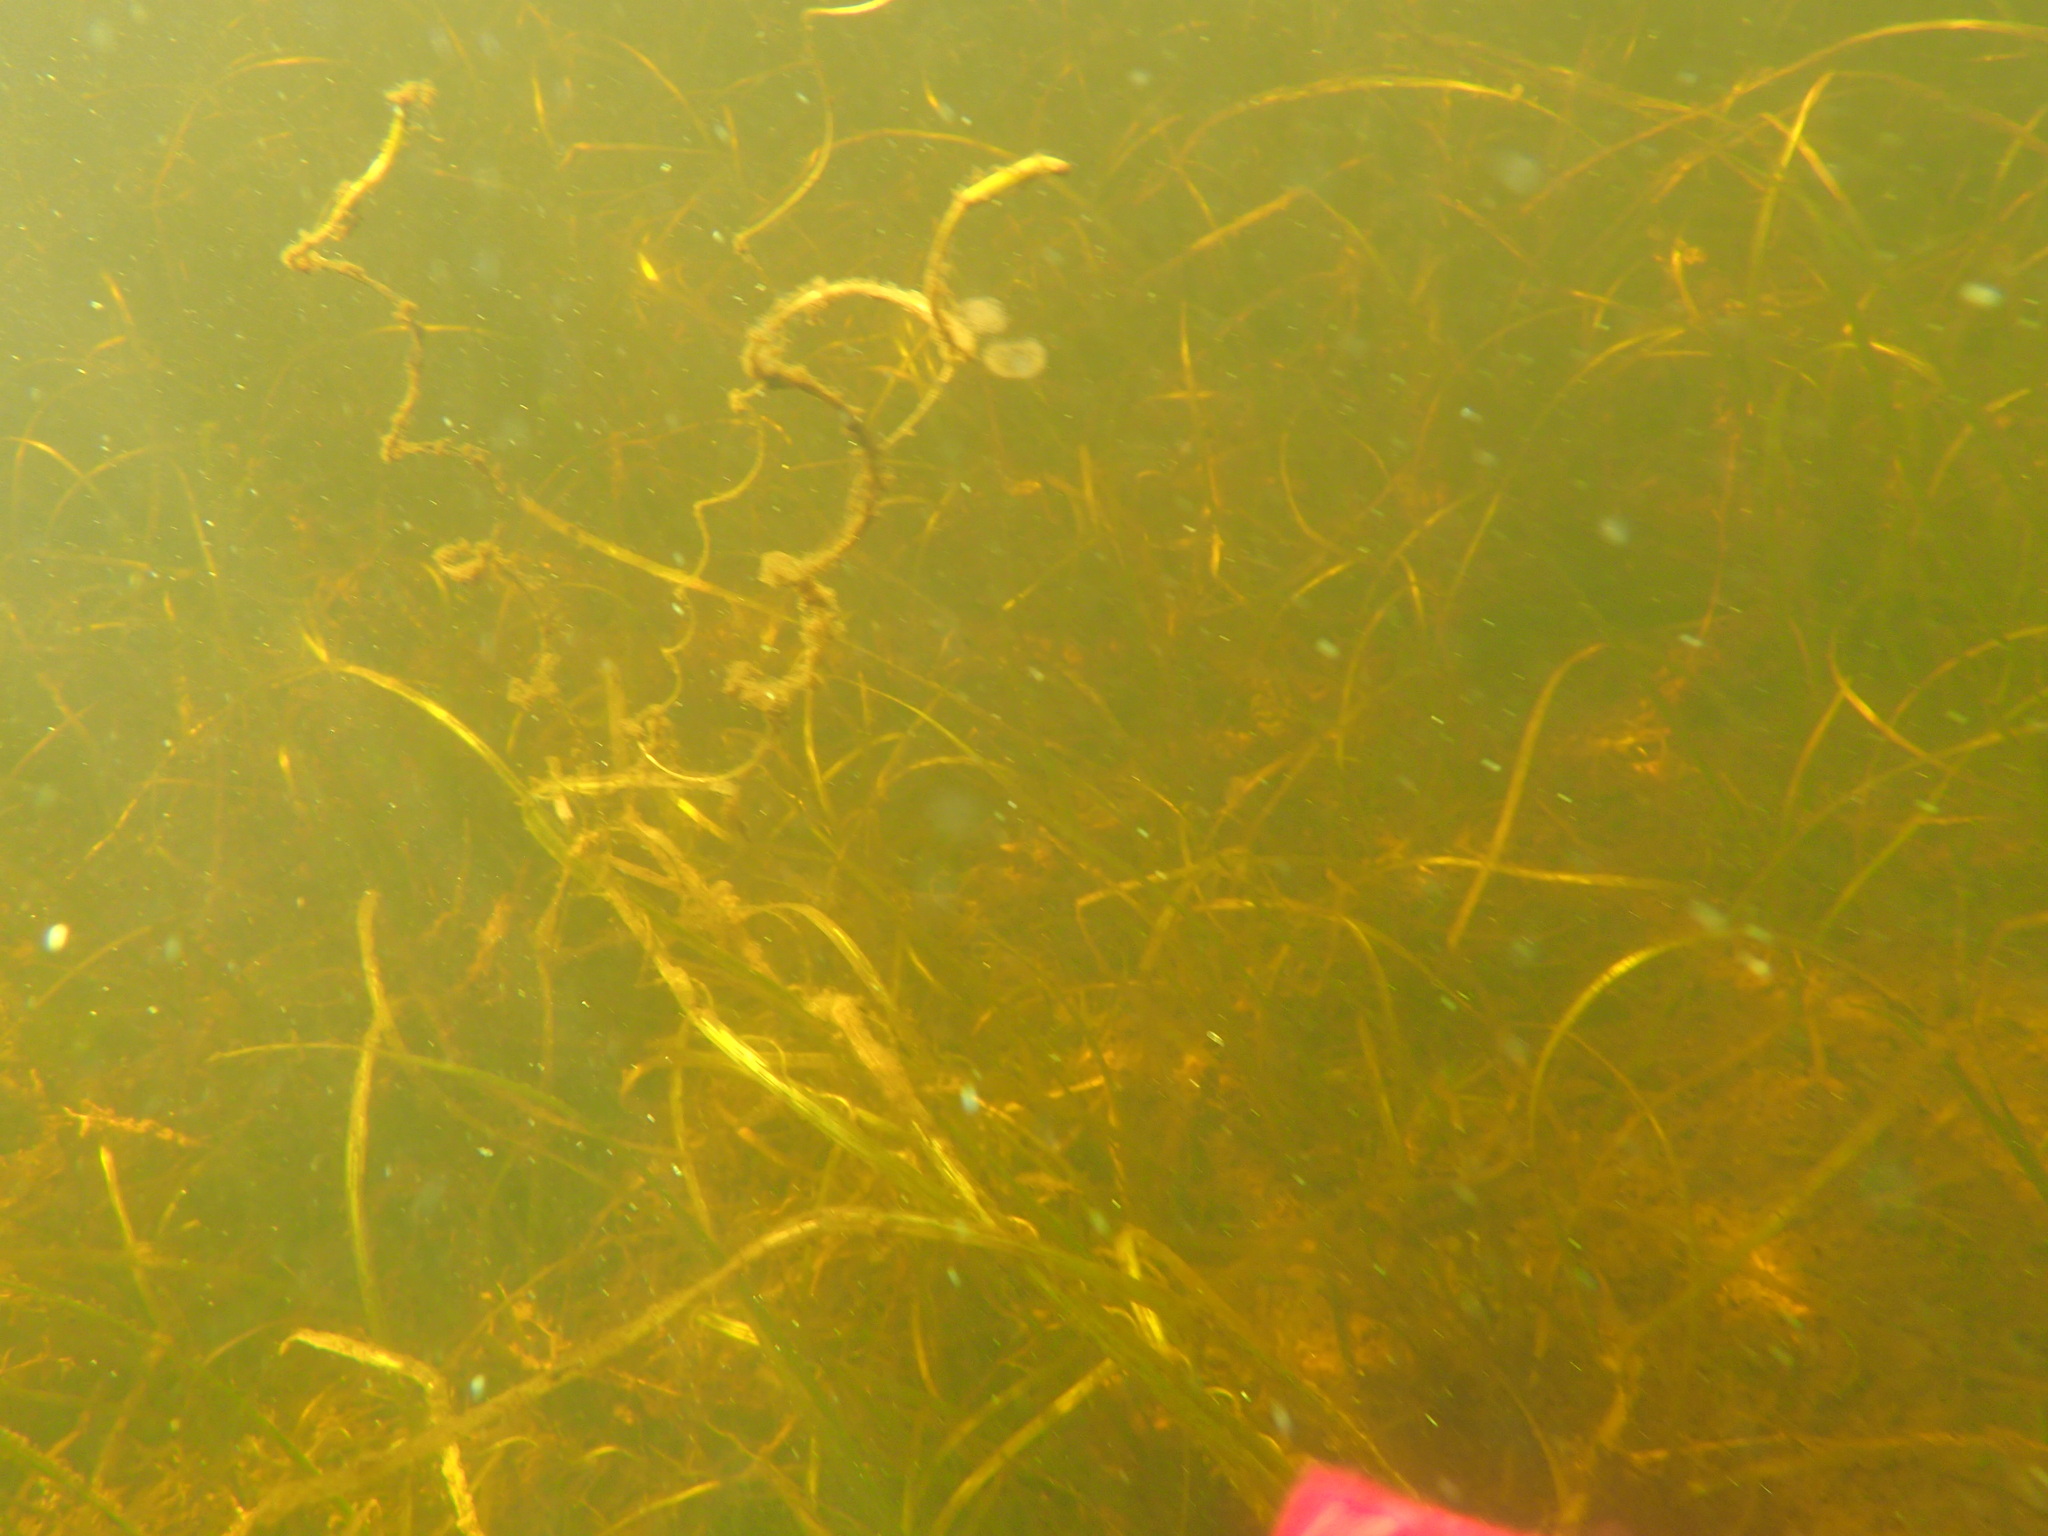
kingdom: Plantae
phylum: Tracheophyta
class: Liliopsida
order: Alismatales
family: Hydrocharitaceae
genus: Vallisneria
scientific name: Vallisneria americana
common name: American eelgrass
